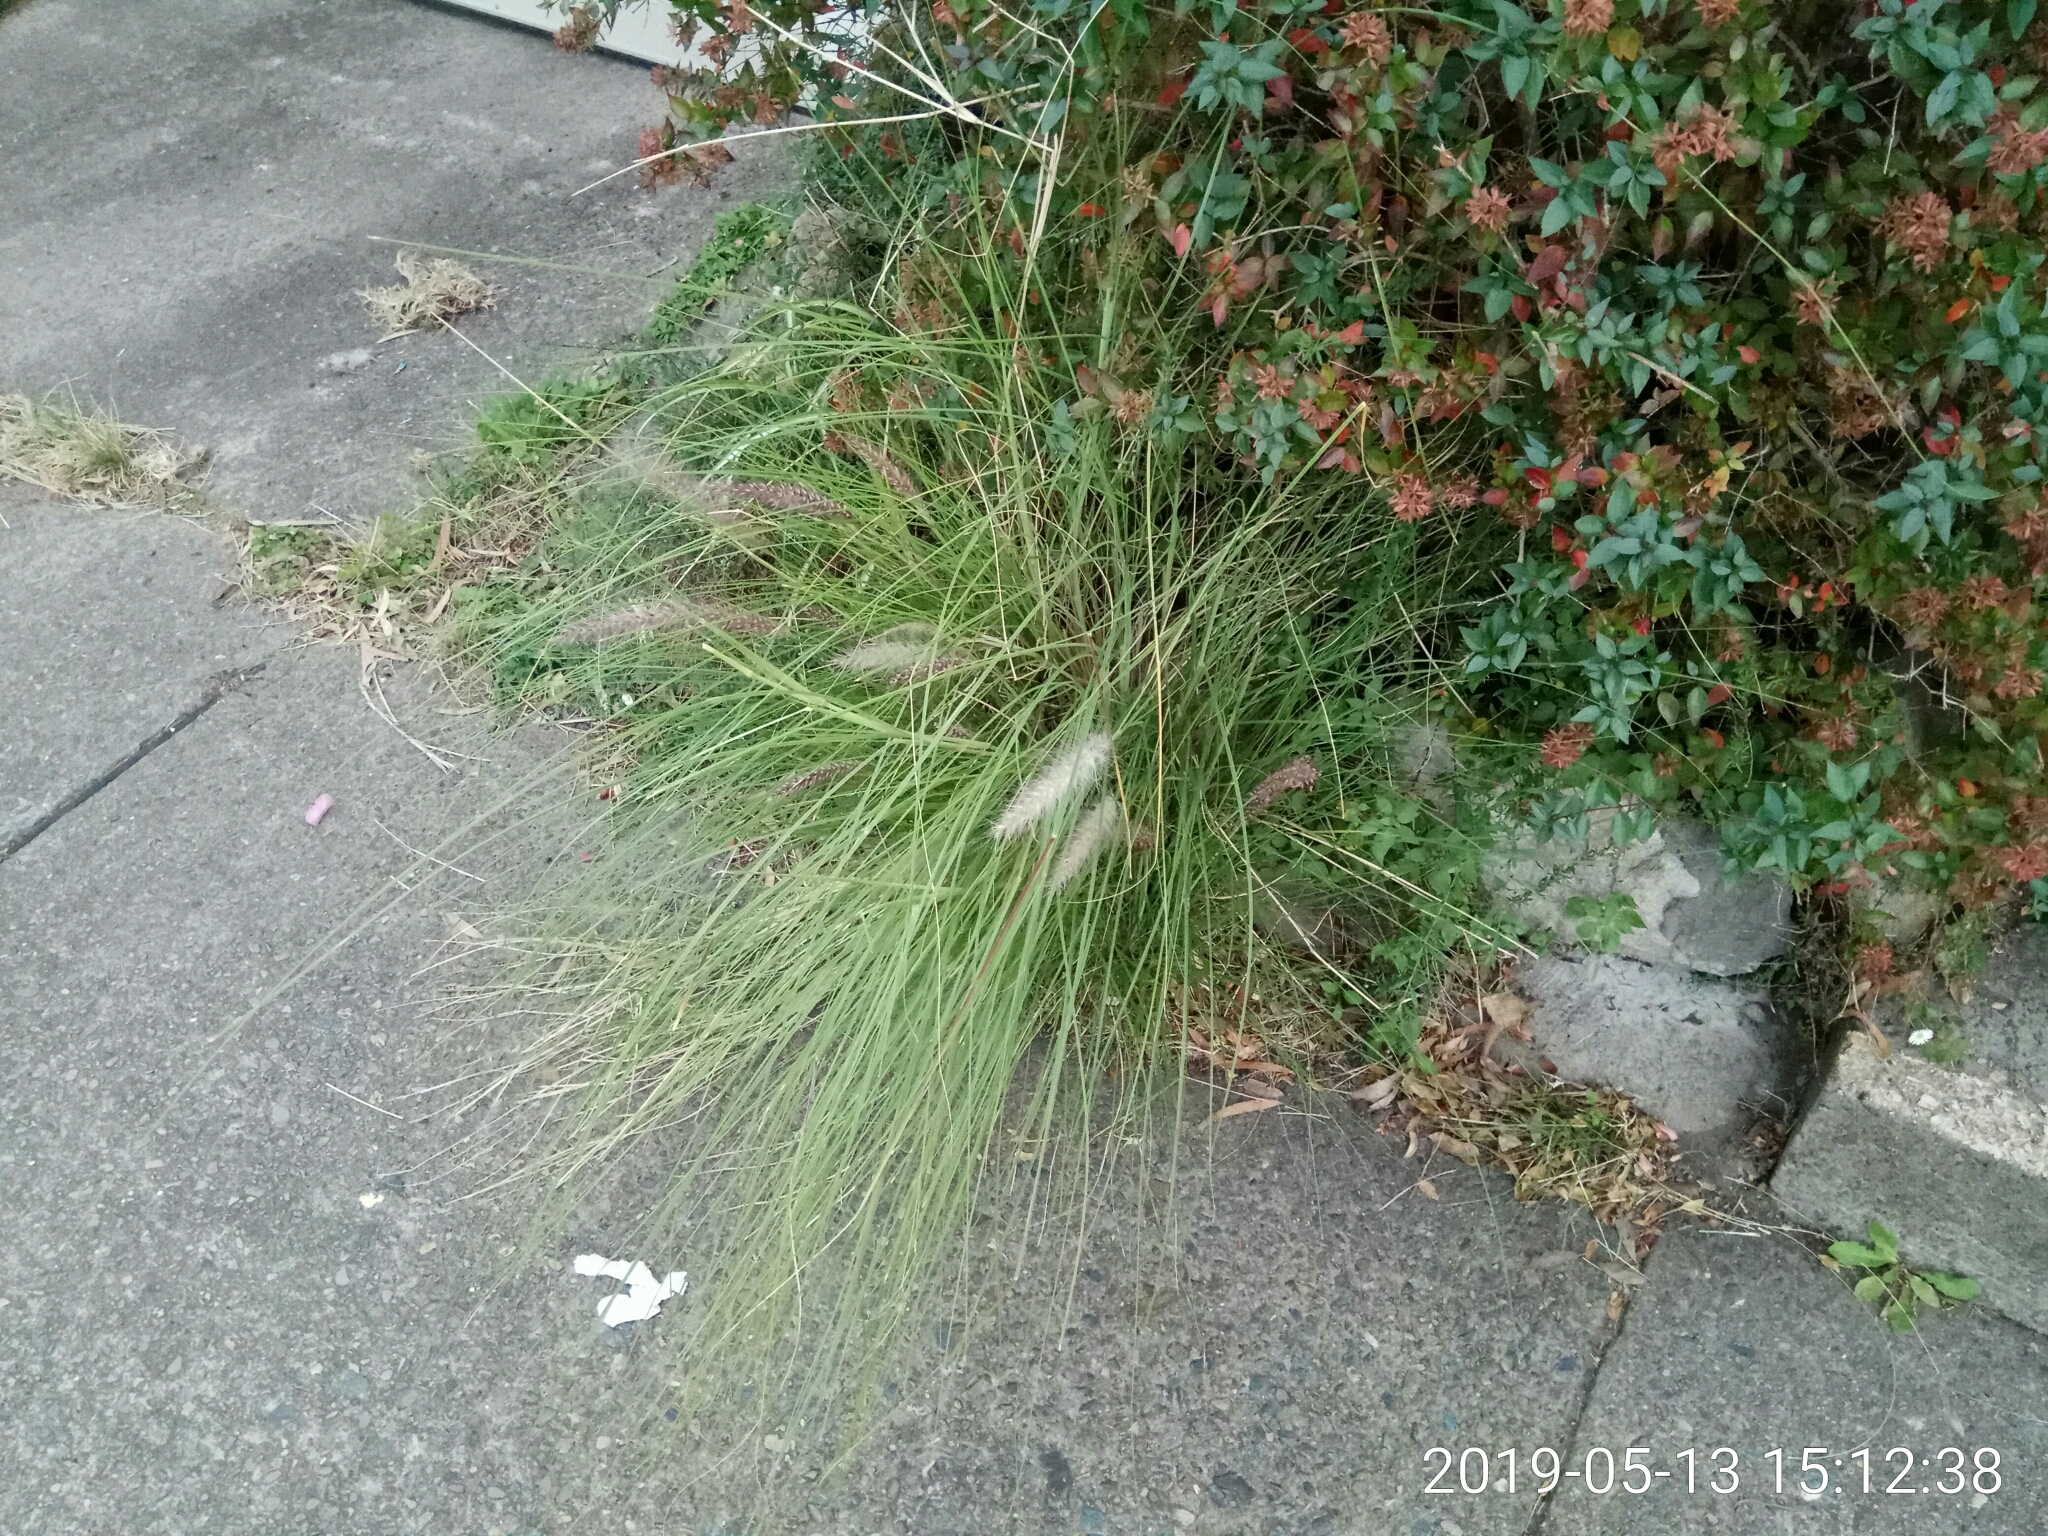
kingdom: Plantae
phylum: Tracheophyta
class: Liliopsida
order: Poales
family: Poaceae
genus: Cenchrus
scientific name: Cenchrus setaceus
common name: Crimson fountaingrass
